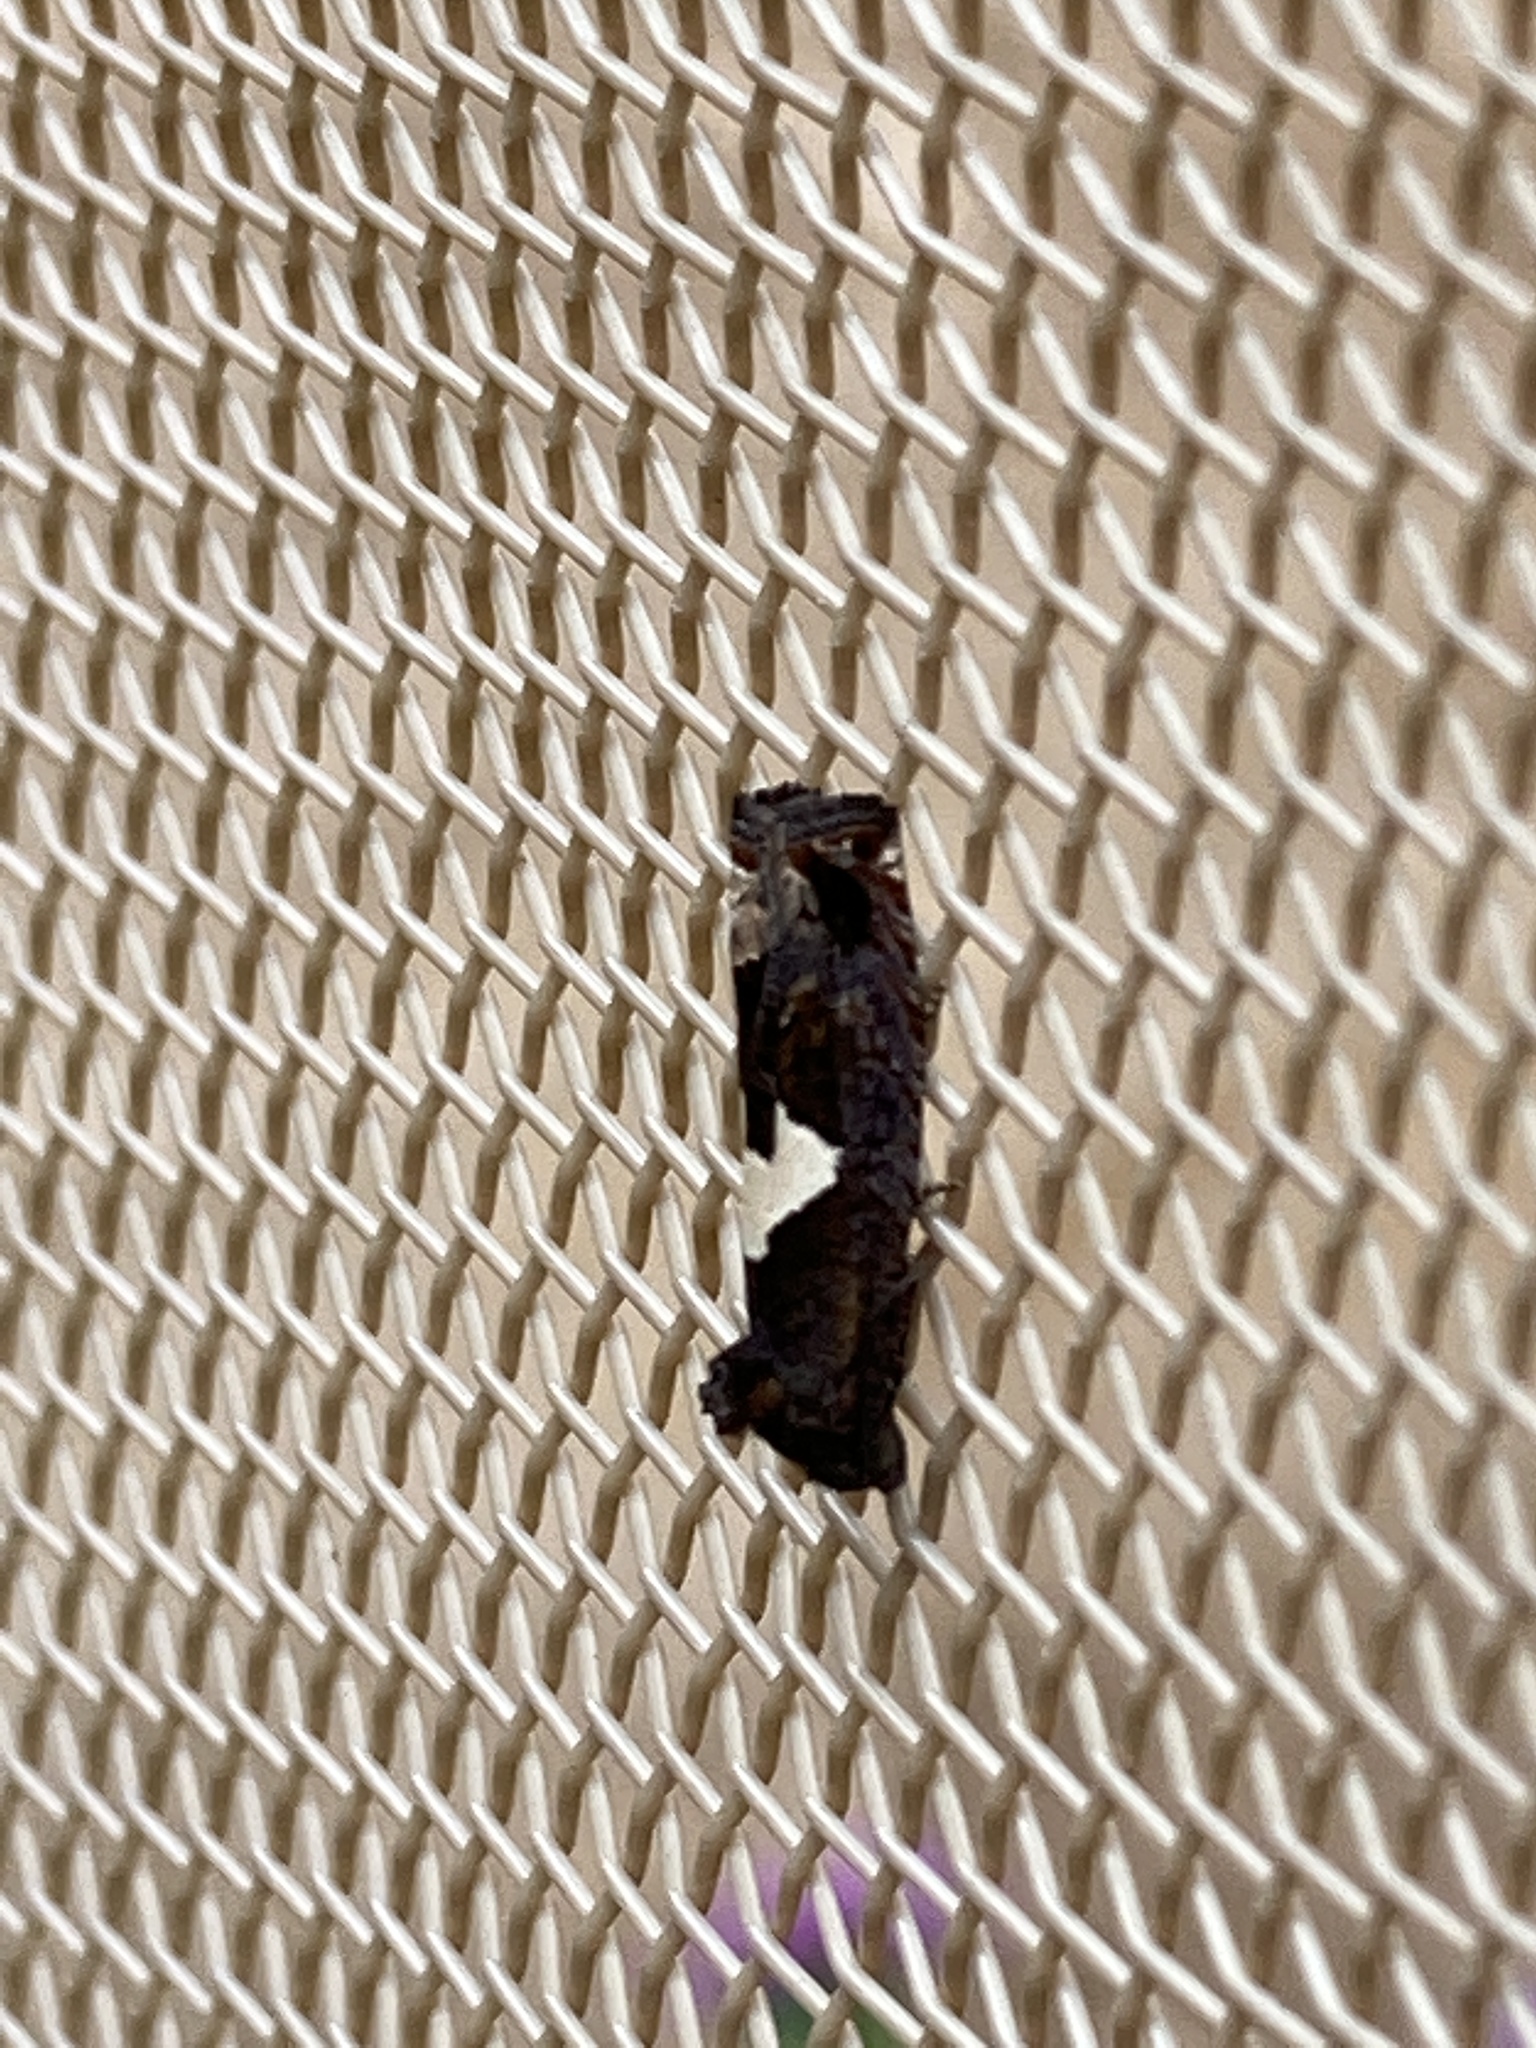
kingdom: Animalia
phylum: Arthropoda
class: Insecta
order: Lepidoptera
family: Tortricidae
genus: Epiblema
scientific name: Epiblema otiosana
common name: Bidens borer moth
